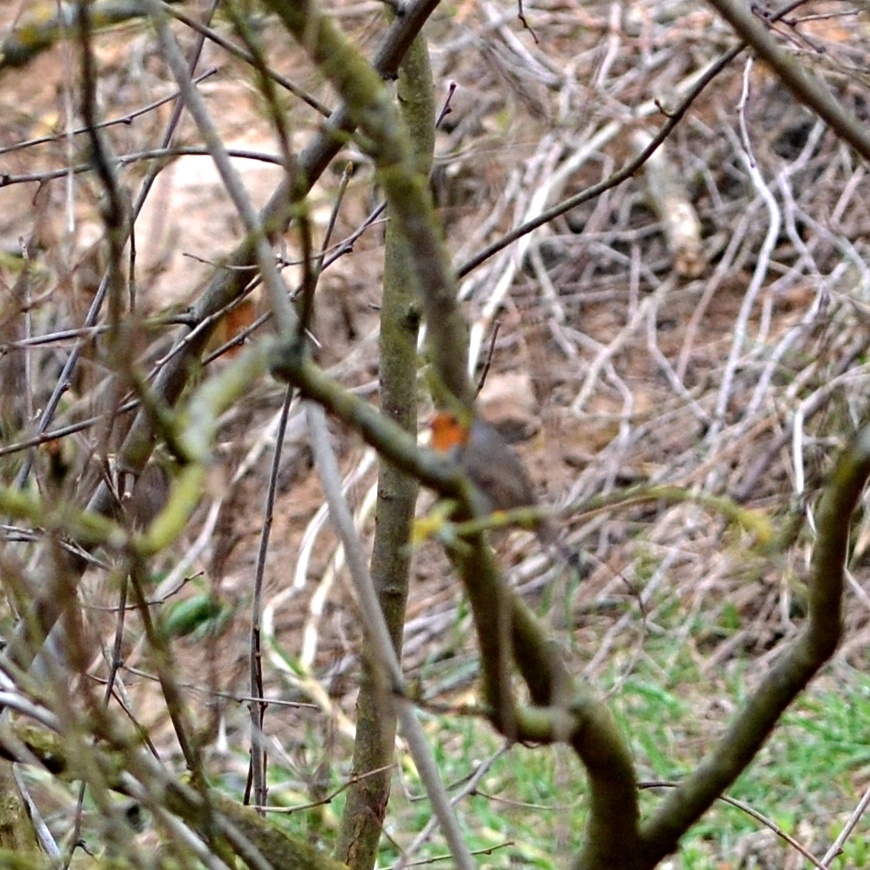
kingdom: Animalia
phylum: Chordata
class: Aves
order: Passeriformes
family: Muscicapidae
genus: Erithacus
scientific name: Erithacus rubecula
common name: European robin
